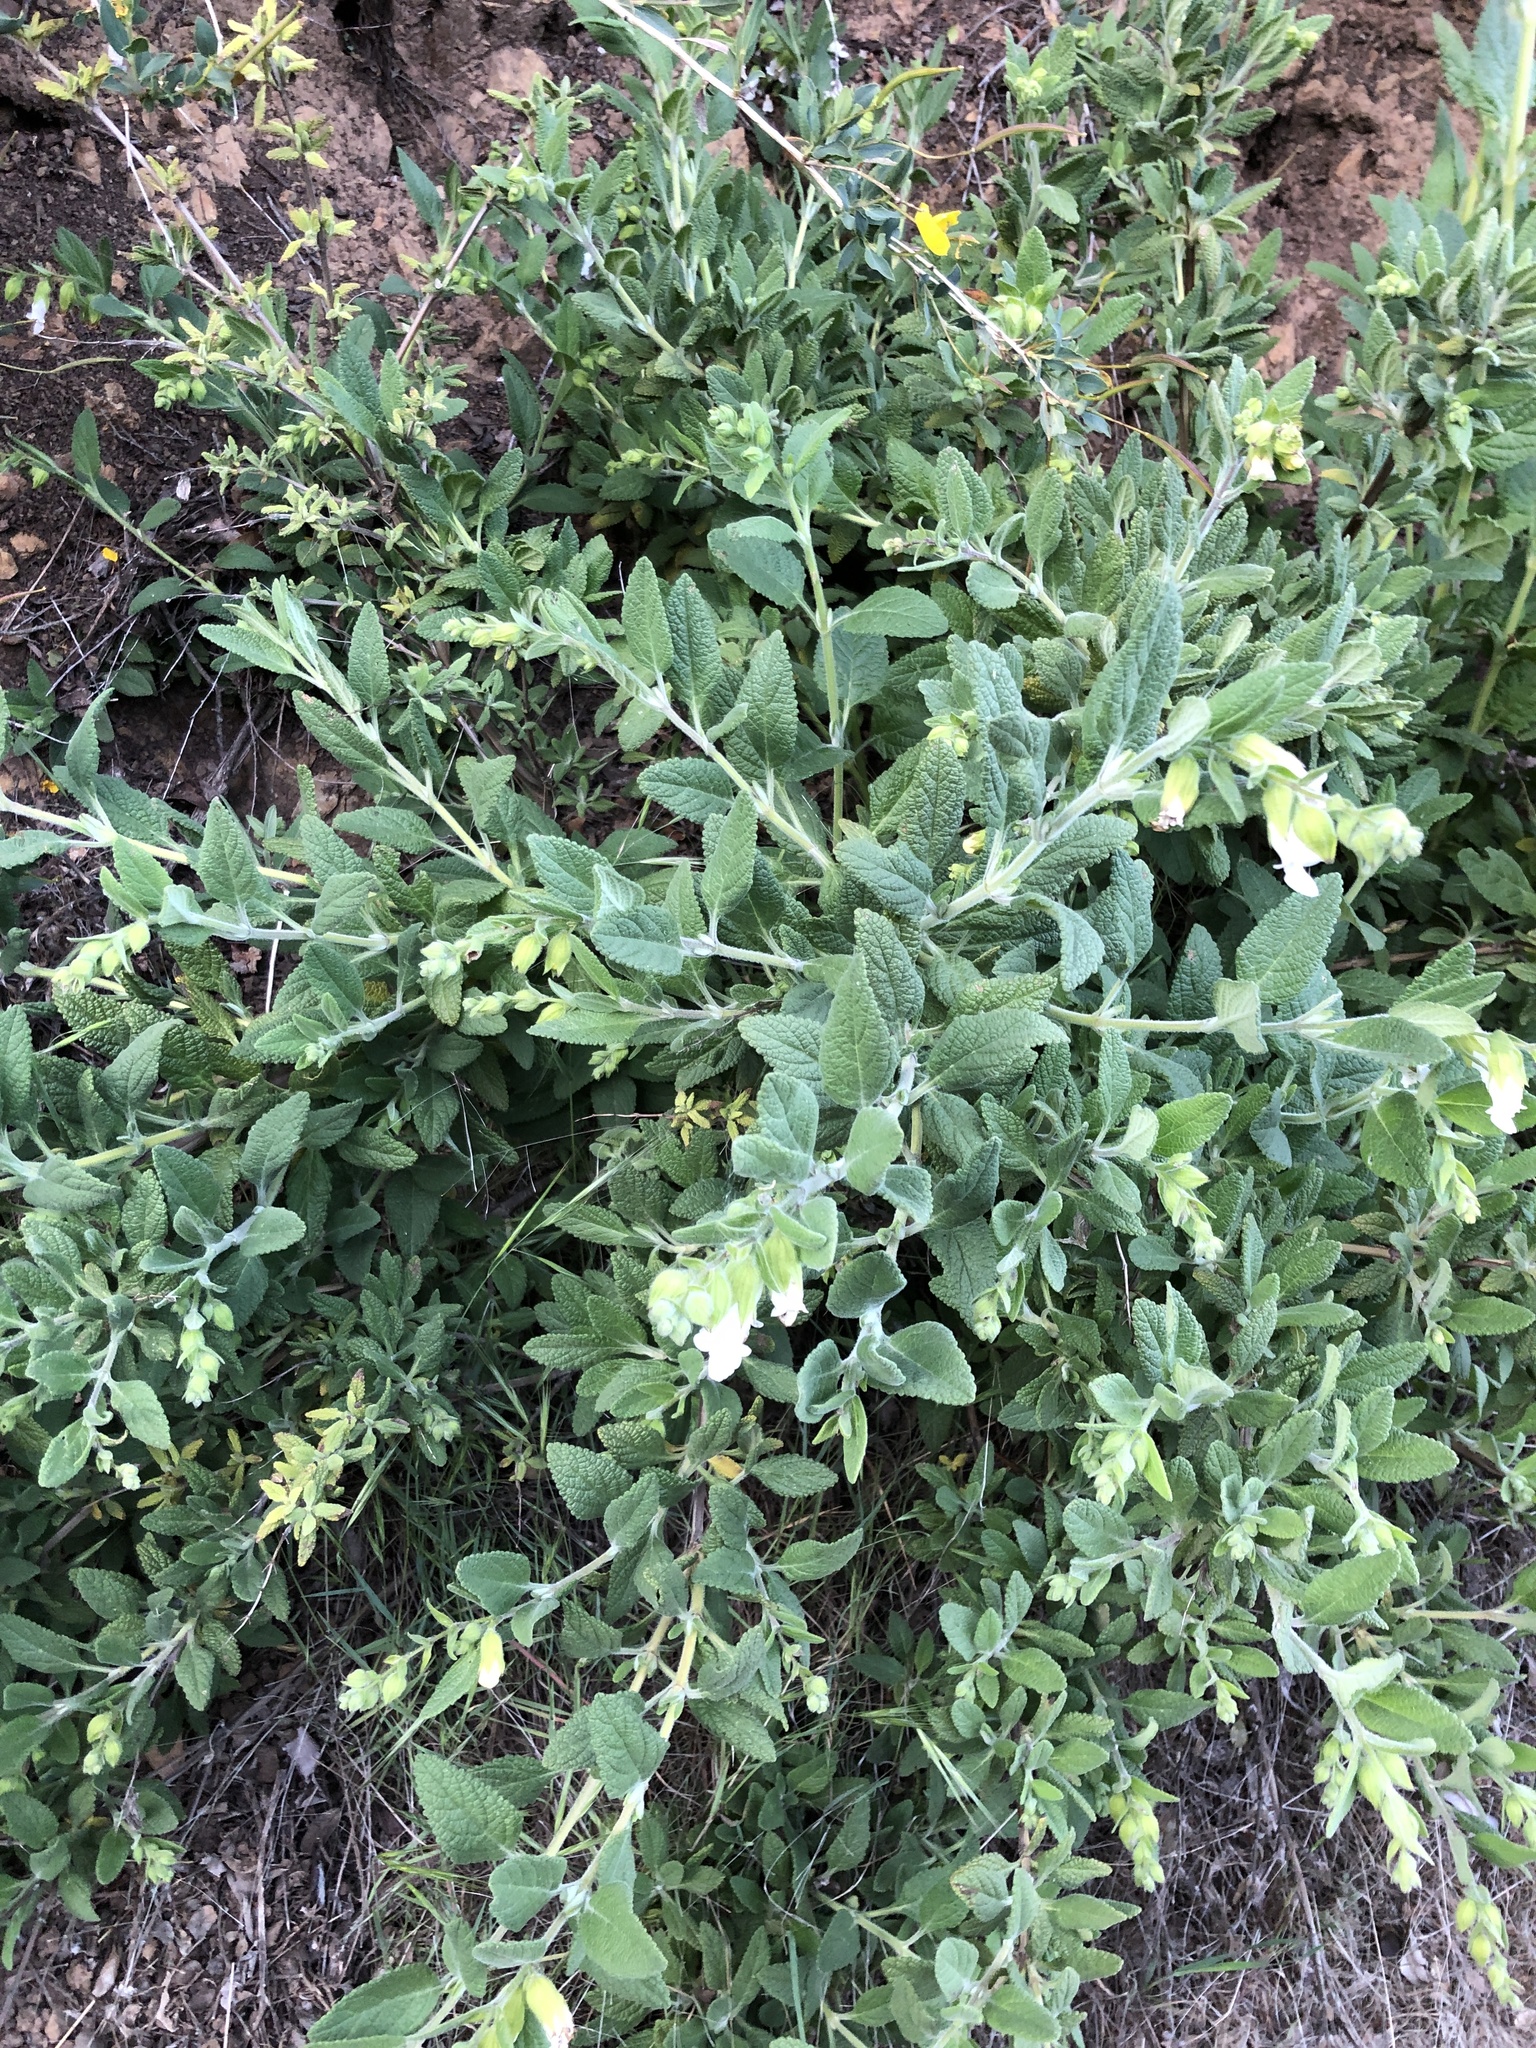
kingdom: Plantae
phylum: Tracheophyta
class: Magnoliopsida
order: Lamiales
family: Lamiaceae
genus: Lepechinia
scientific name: Lepechinia calycina
